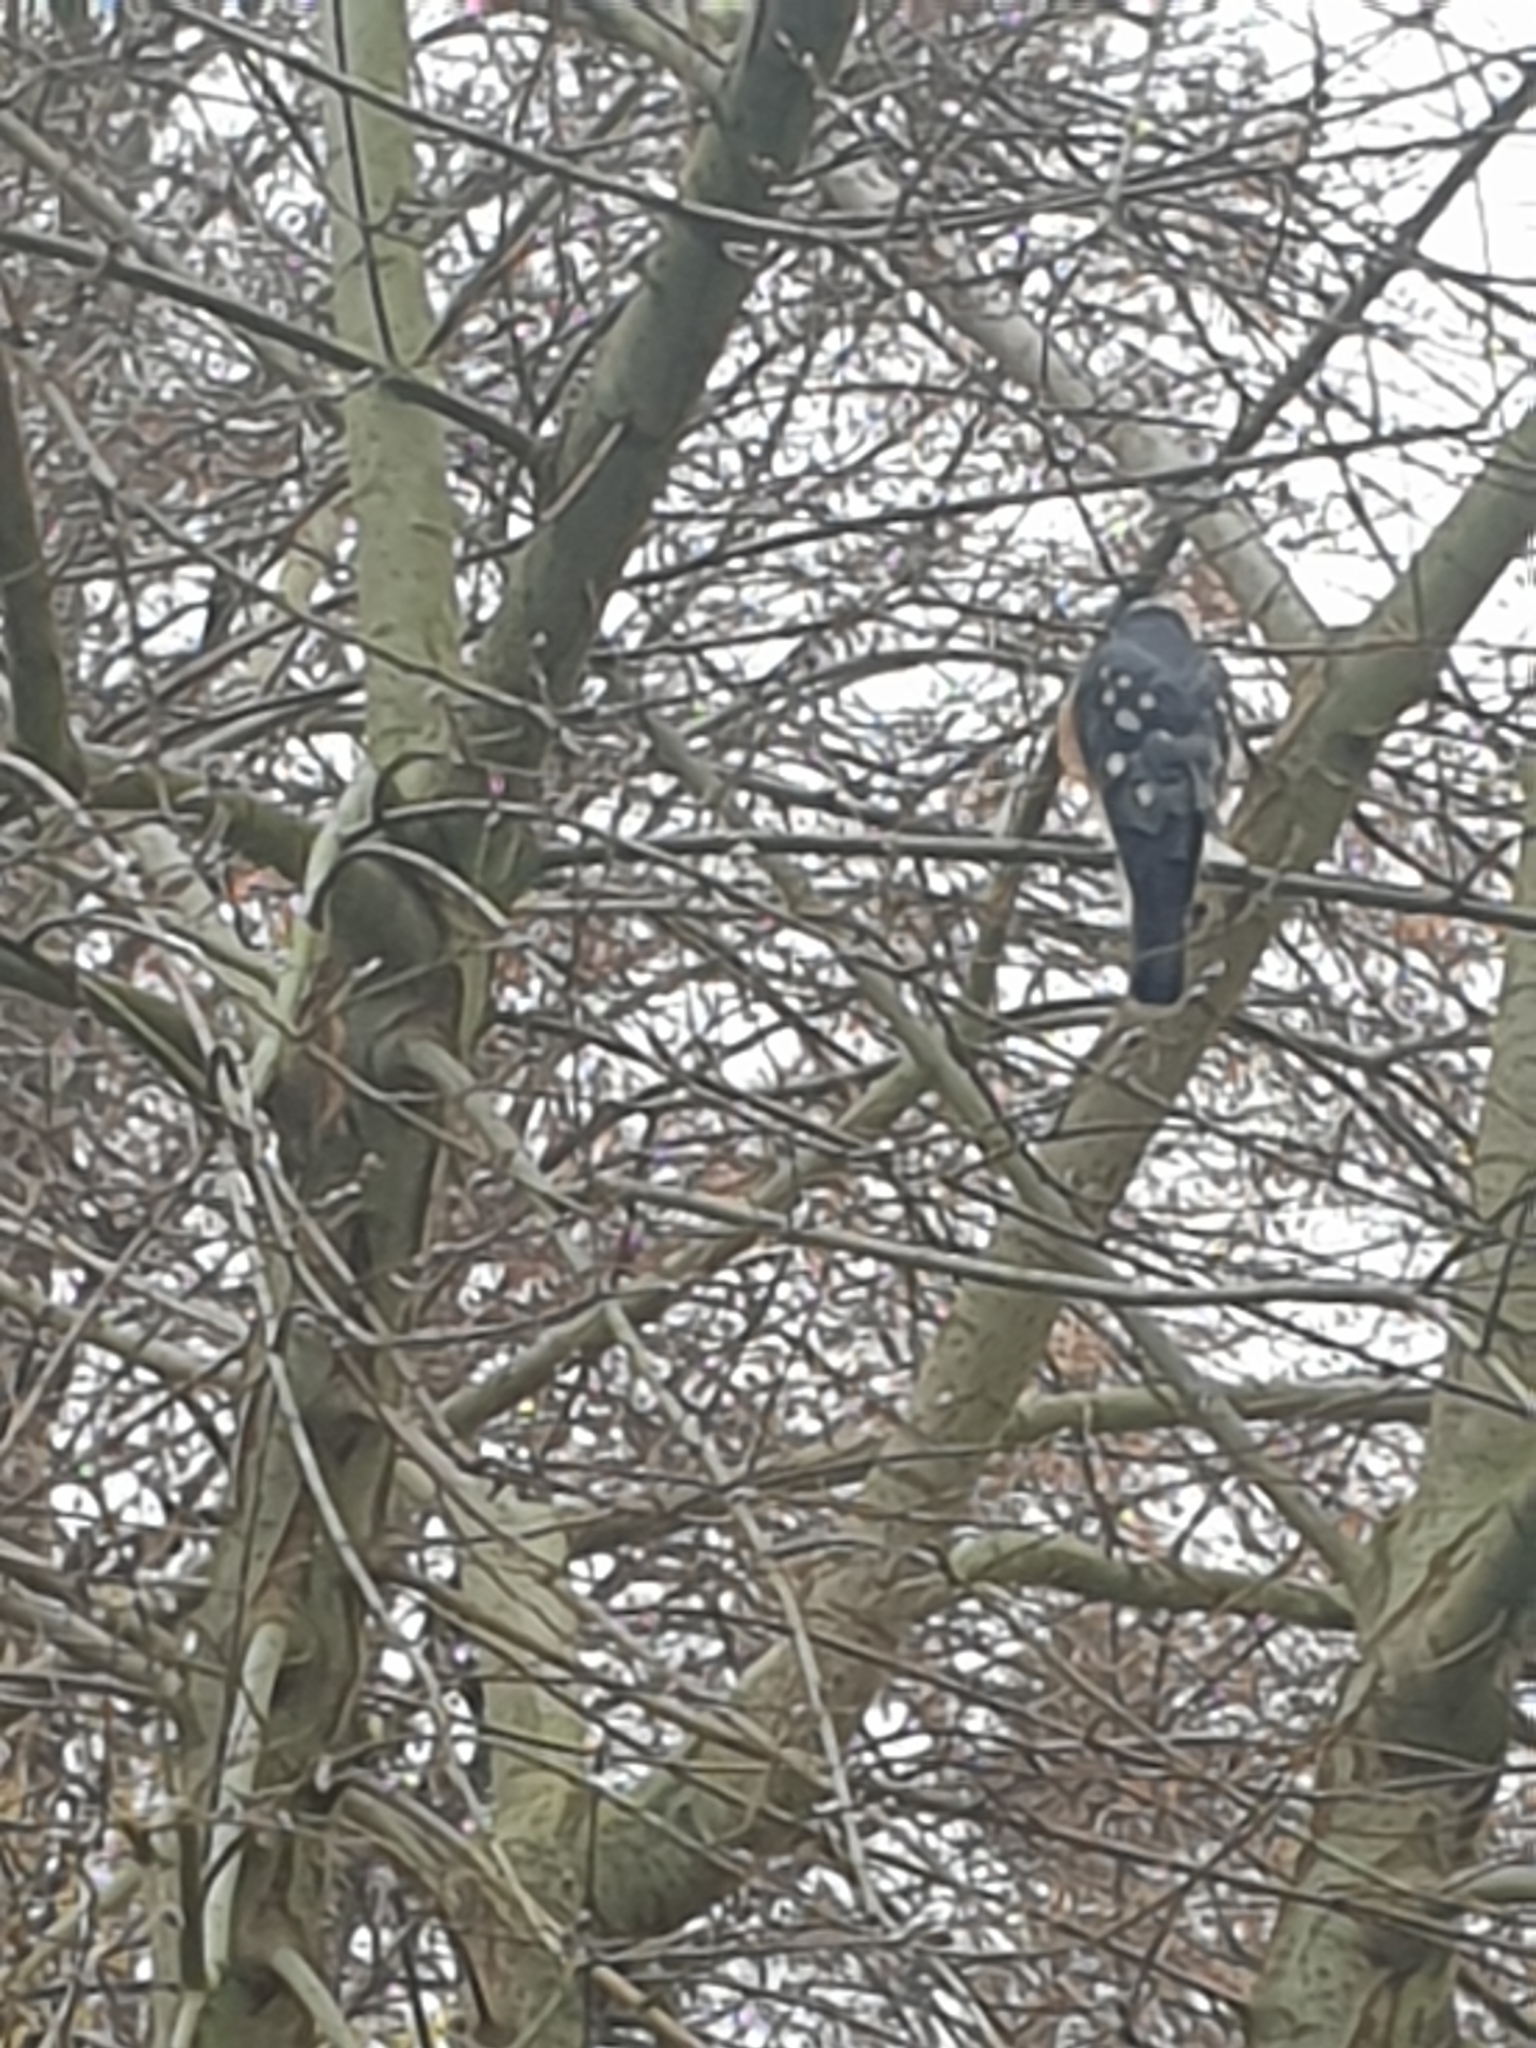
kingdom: Animalia
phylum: Chordata
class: Aves
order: Accipitriformes
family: Accipitridae
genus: Accipiter
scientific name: Accipiter nisus
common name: Eurasian sparrowhawk
